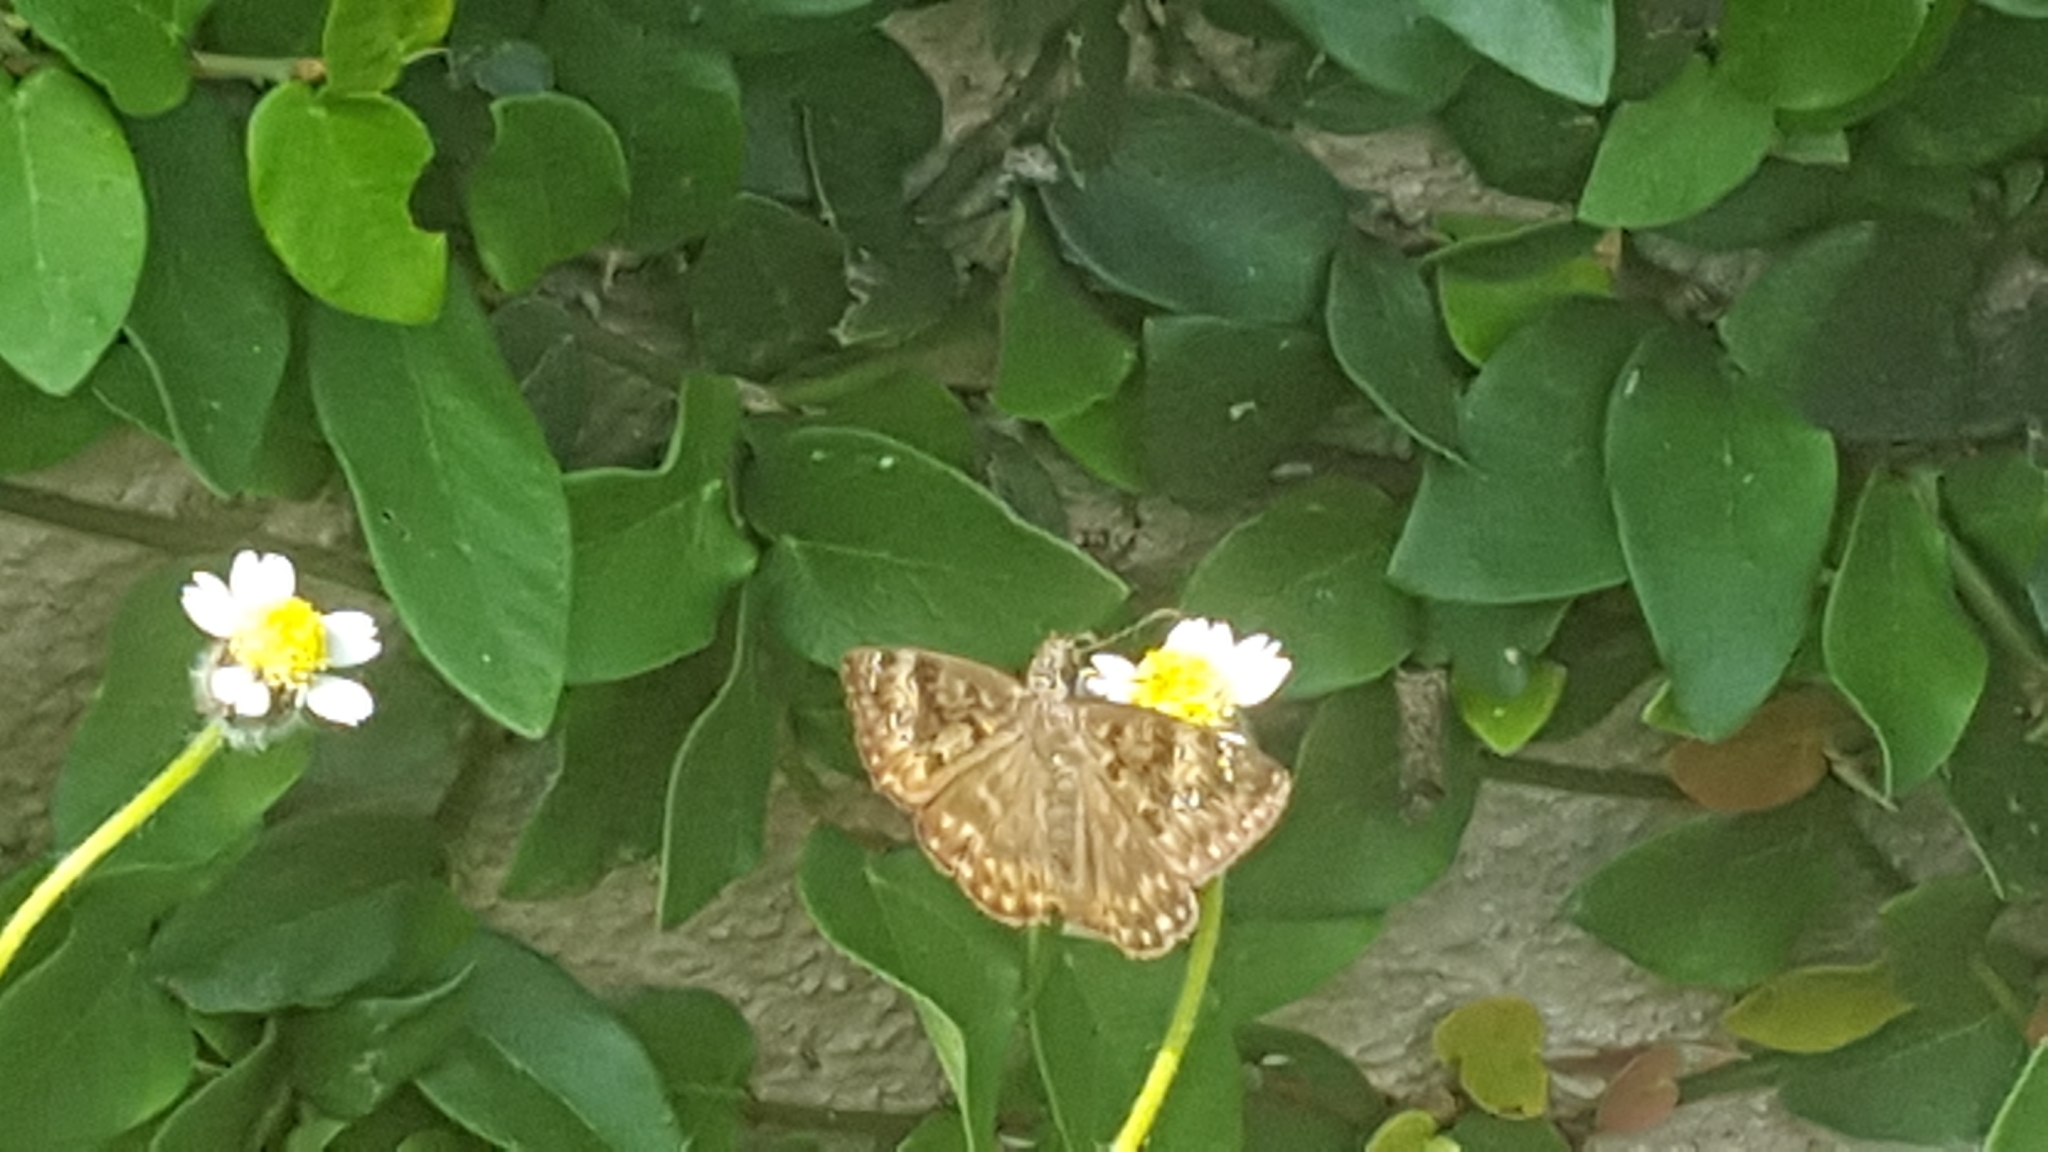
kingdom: Animalia
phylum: Arthropoda
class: Insecta
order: Lepidoptera
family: Hesperiidae
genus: Erynnis
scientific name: Erynnis horatius
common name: Horace's duskywing
